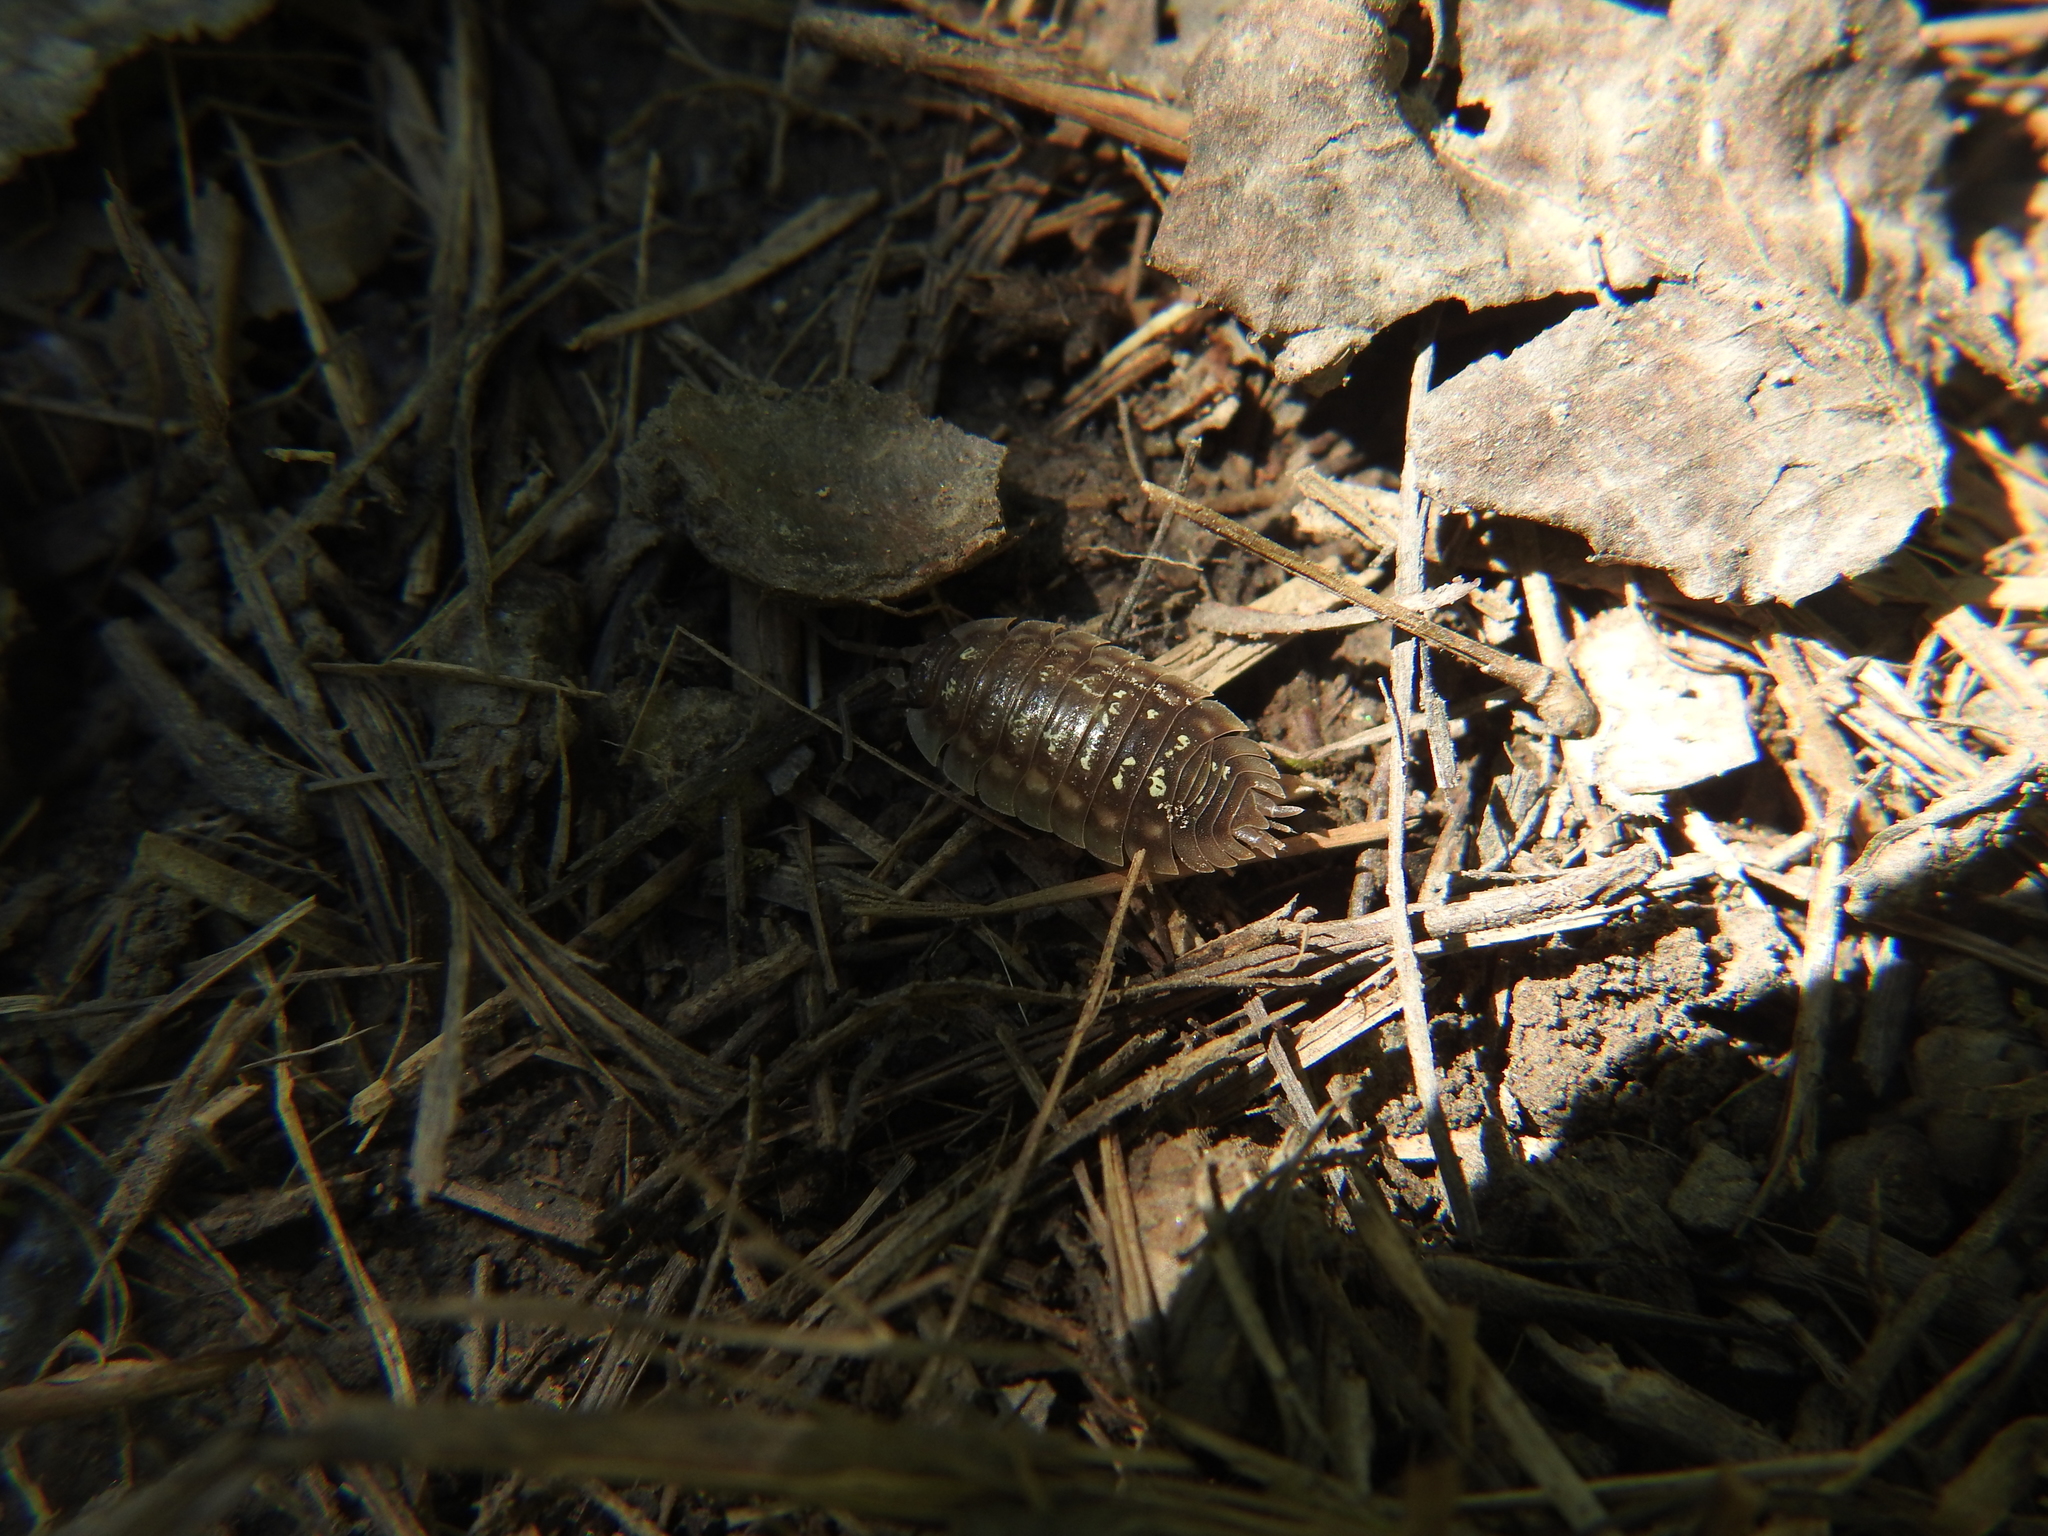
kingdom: Animalia
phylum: Arthropoda
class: Malacostraca
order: Isopoda
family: Oniscidae
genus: Oniscus
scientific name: Oniscus asellus
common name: Common shiny woodlouse
